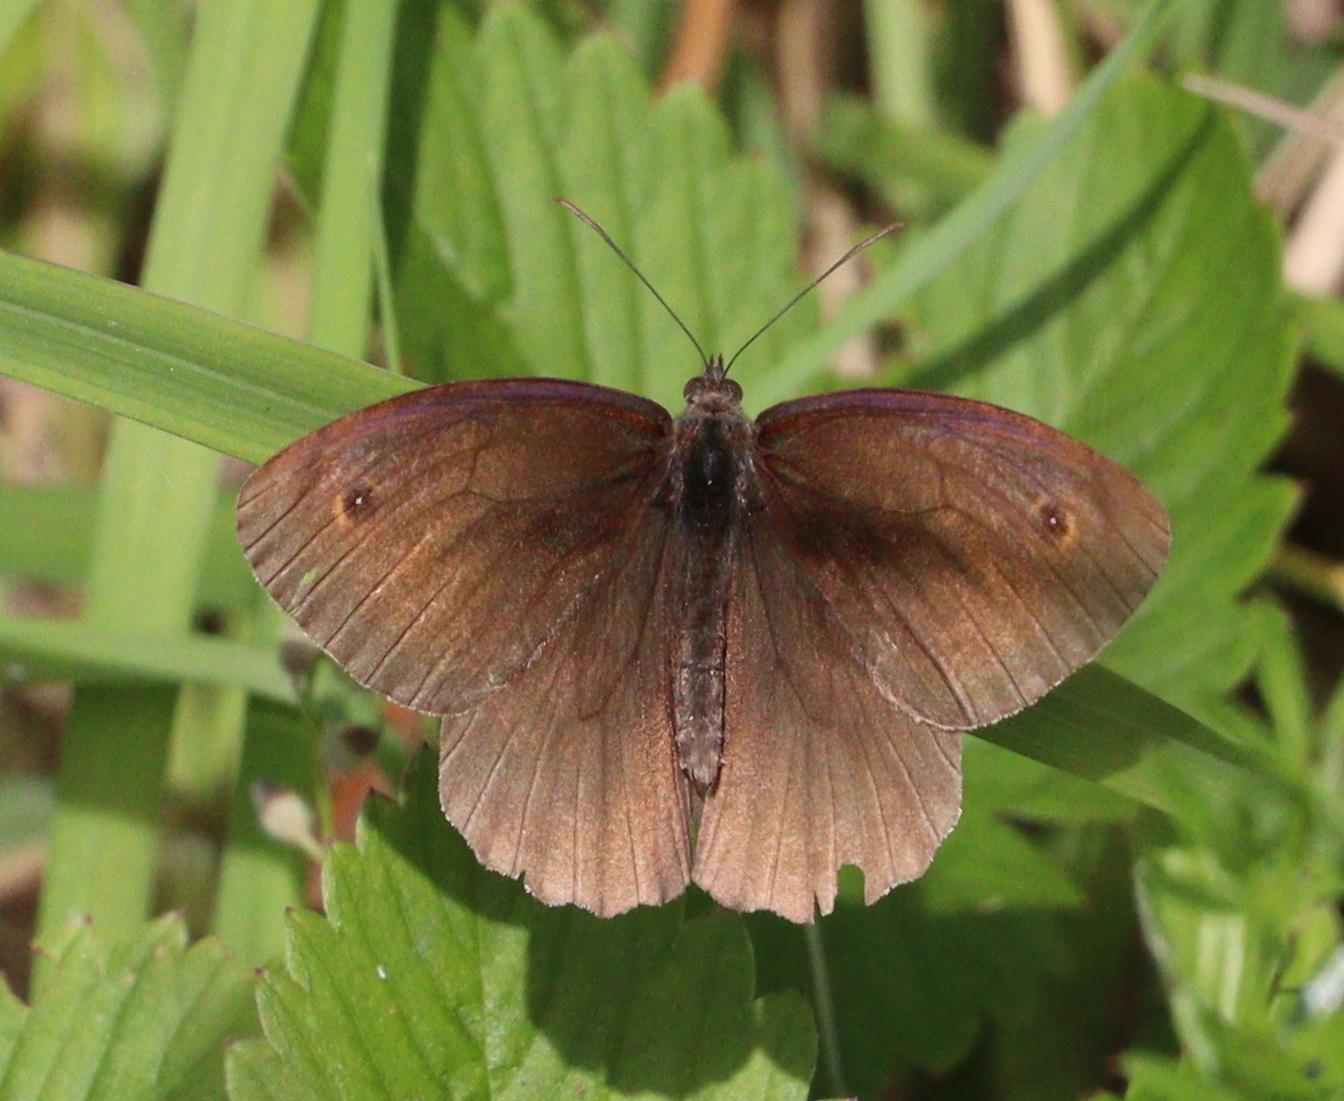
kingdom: Animalia
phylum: Arthropoda
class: Insecta
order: Lepidoptera
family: Nymphalidae
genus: Maniola
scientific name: Maniola jurtina
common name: Meadow brown
